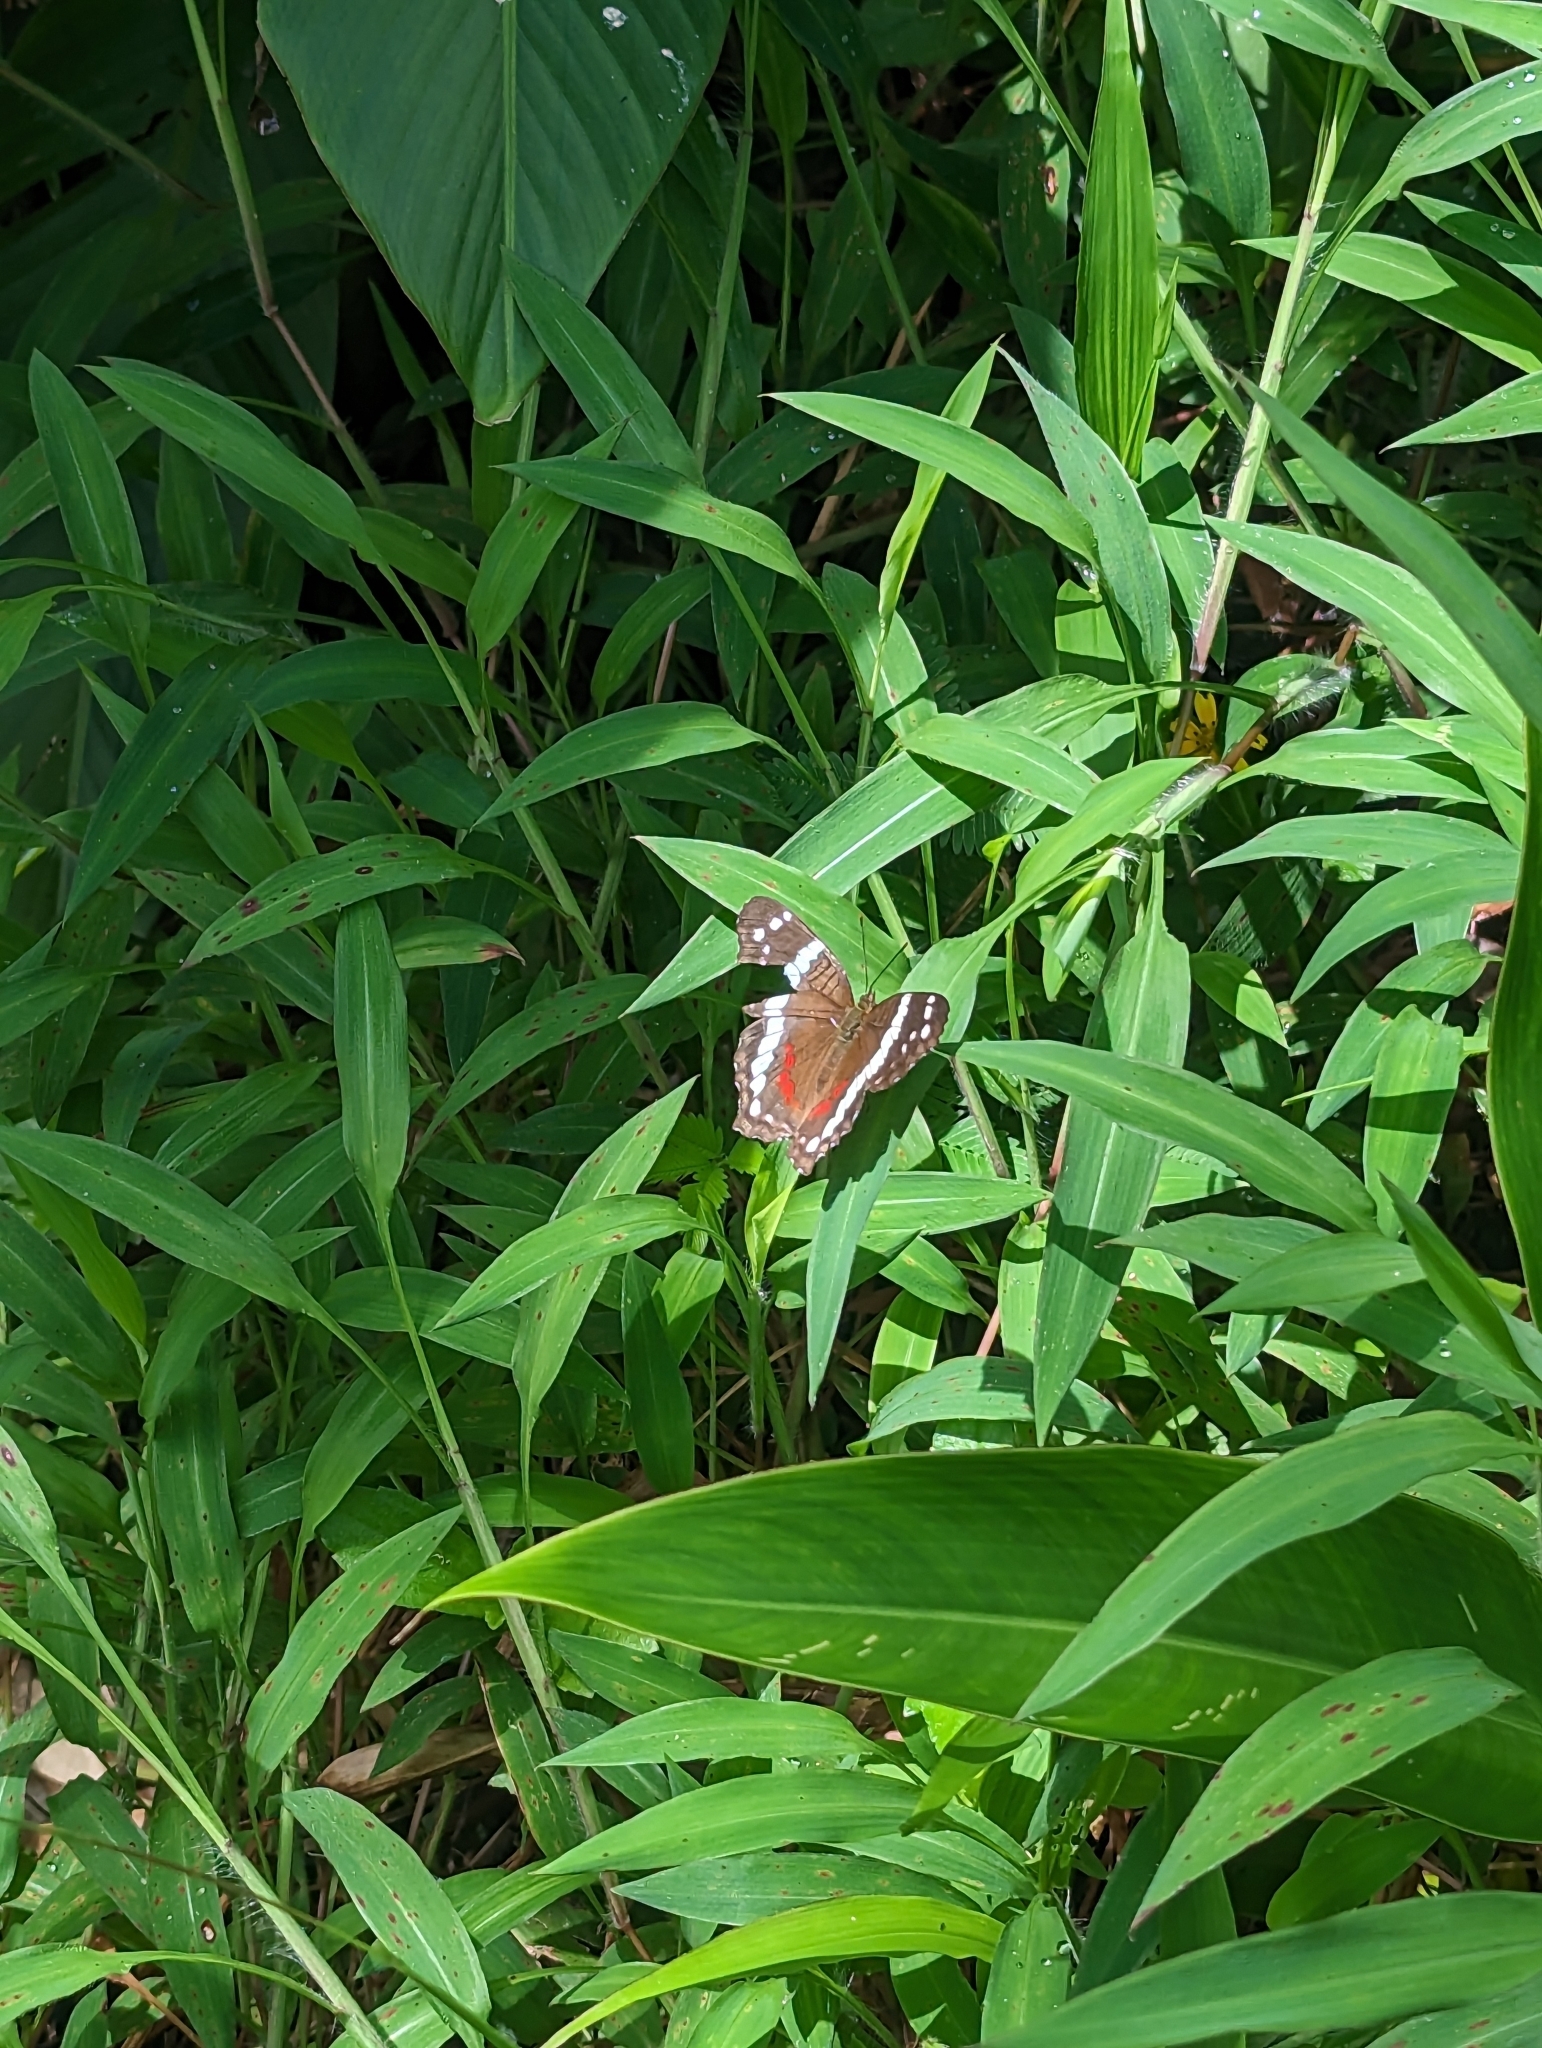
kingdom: Animalia
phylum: Arthropoda
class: Insecta
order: Lepidoptera
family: Nymphalidae
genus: Anartia
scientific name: Anartia fatima
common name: Banded peacock
